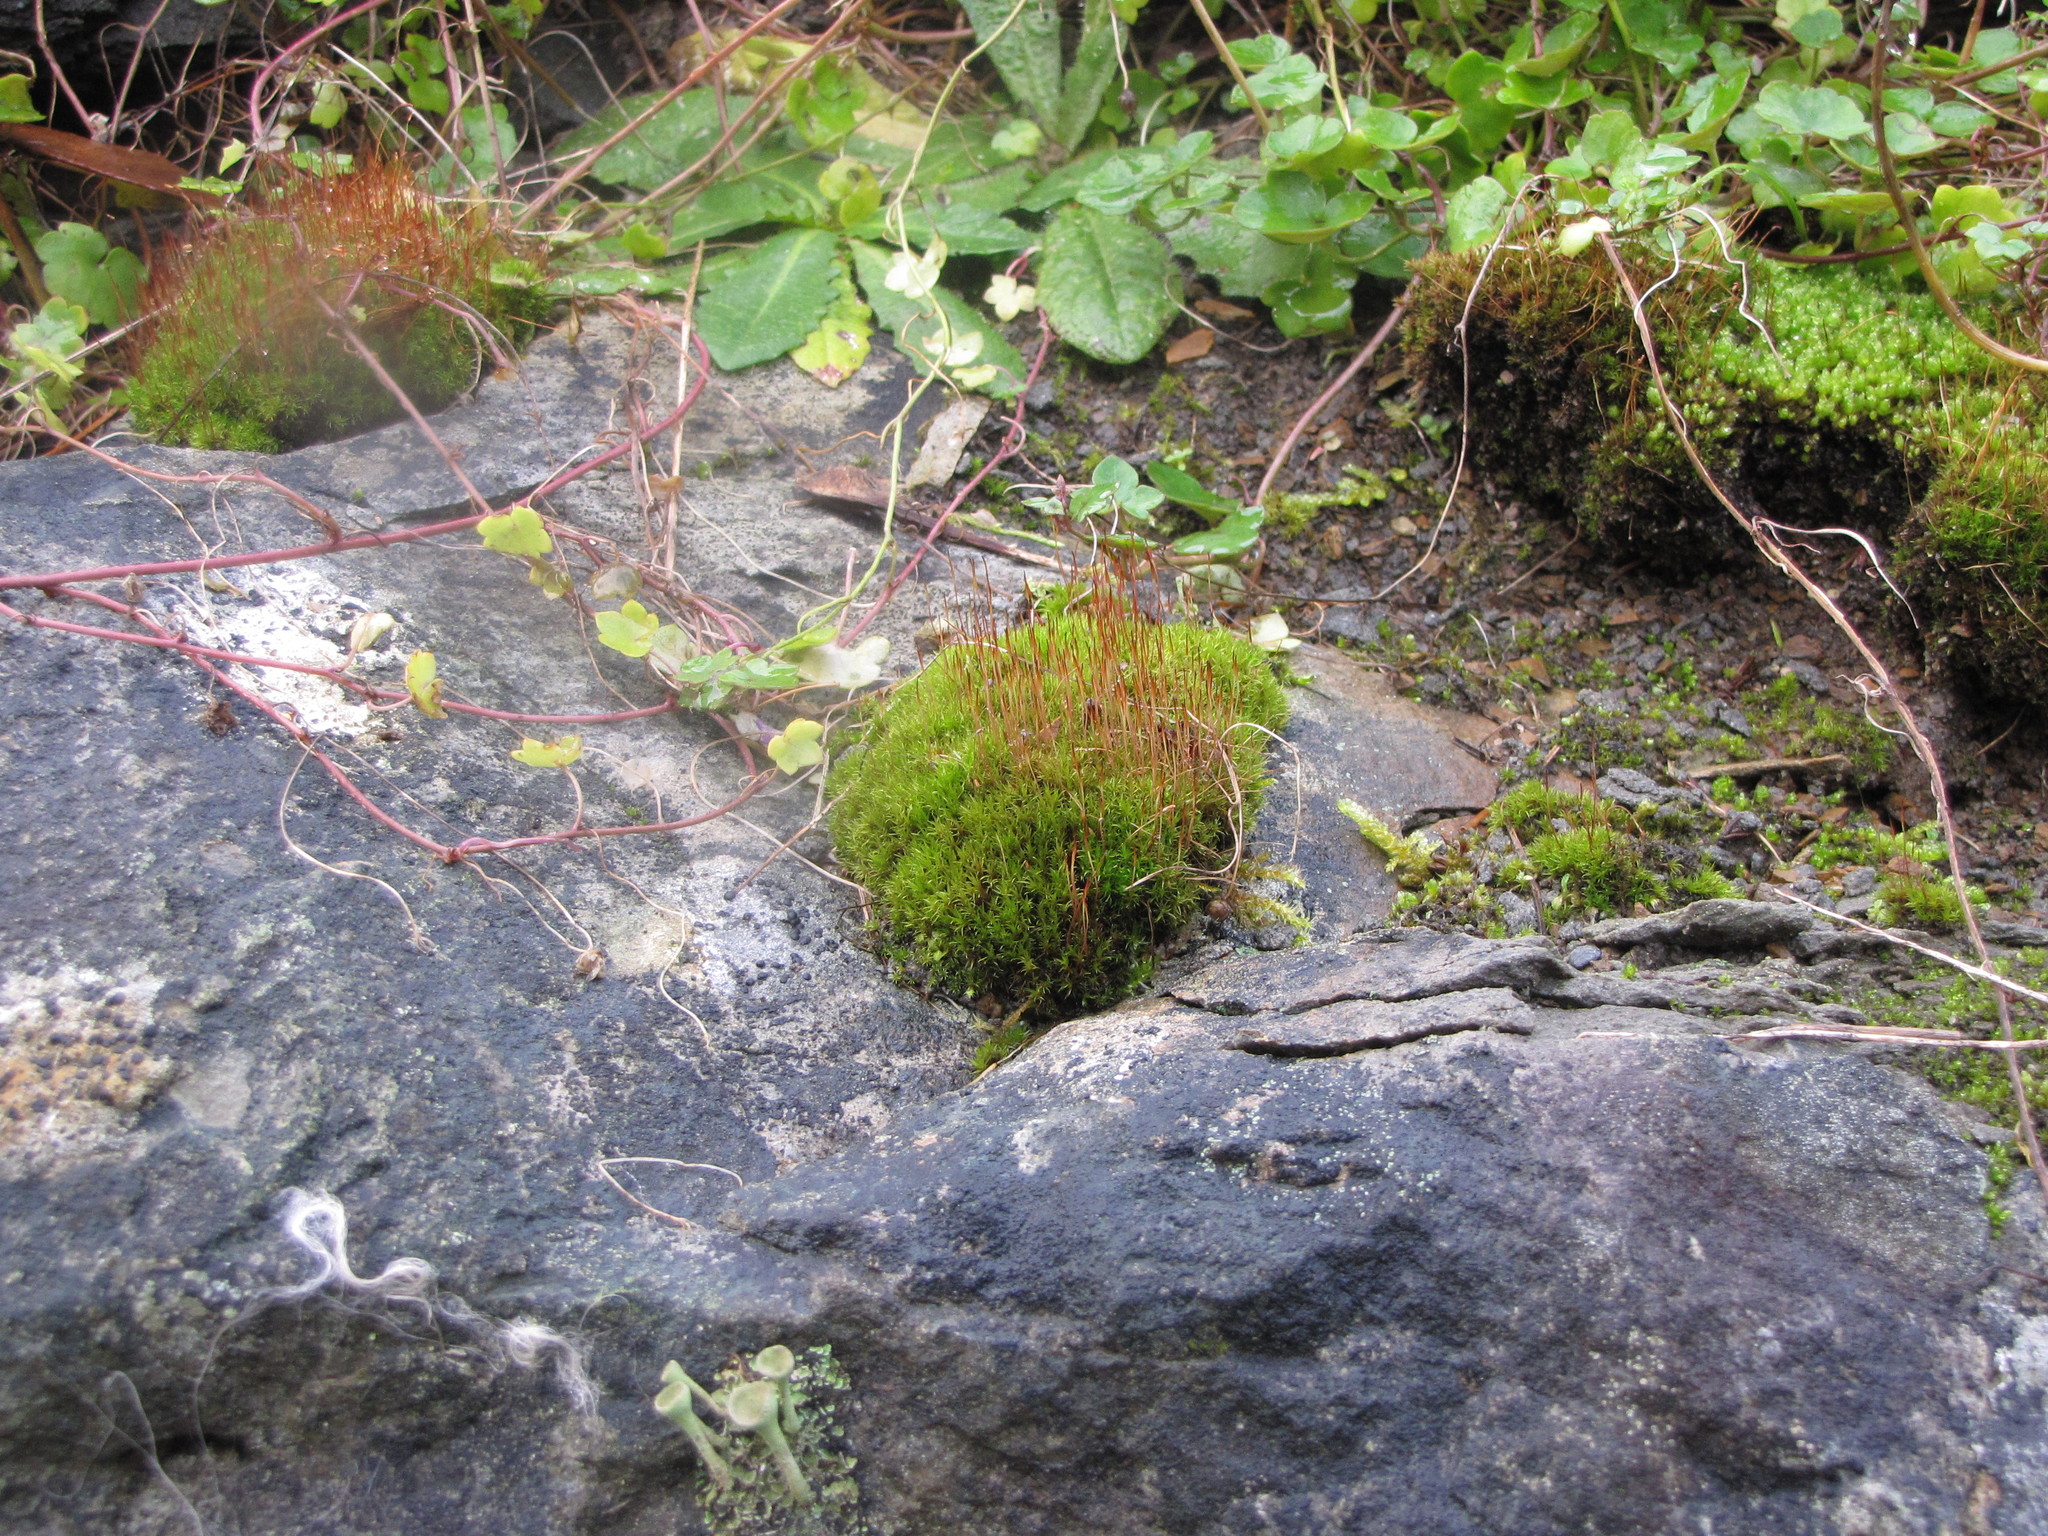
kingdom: Plantae
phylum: Bryophyta
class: Bryopsida
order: Dicranales
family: Ditrichaceae
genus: Ceratodon
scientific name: Ceratodon purpureus
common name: Redshank
